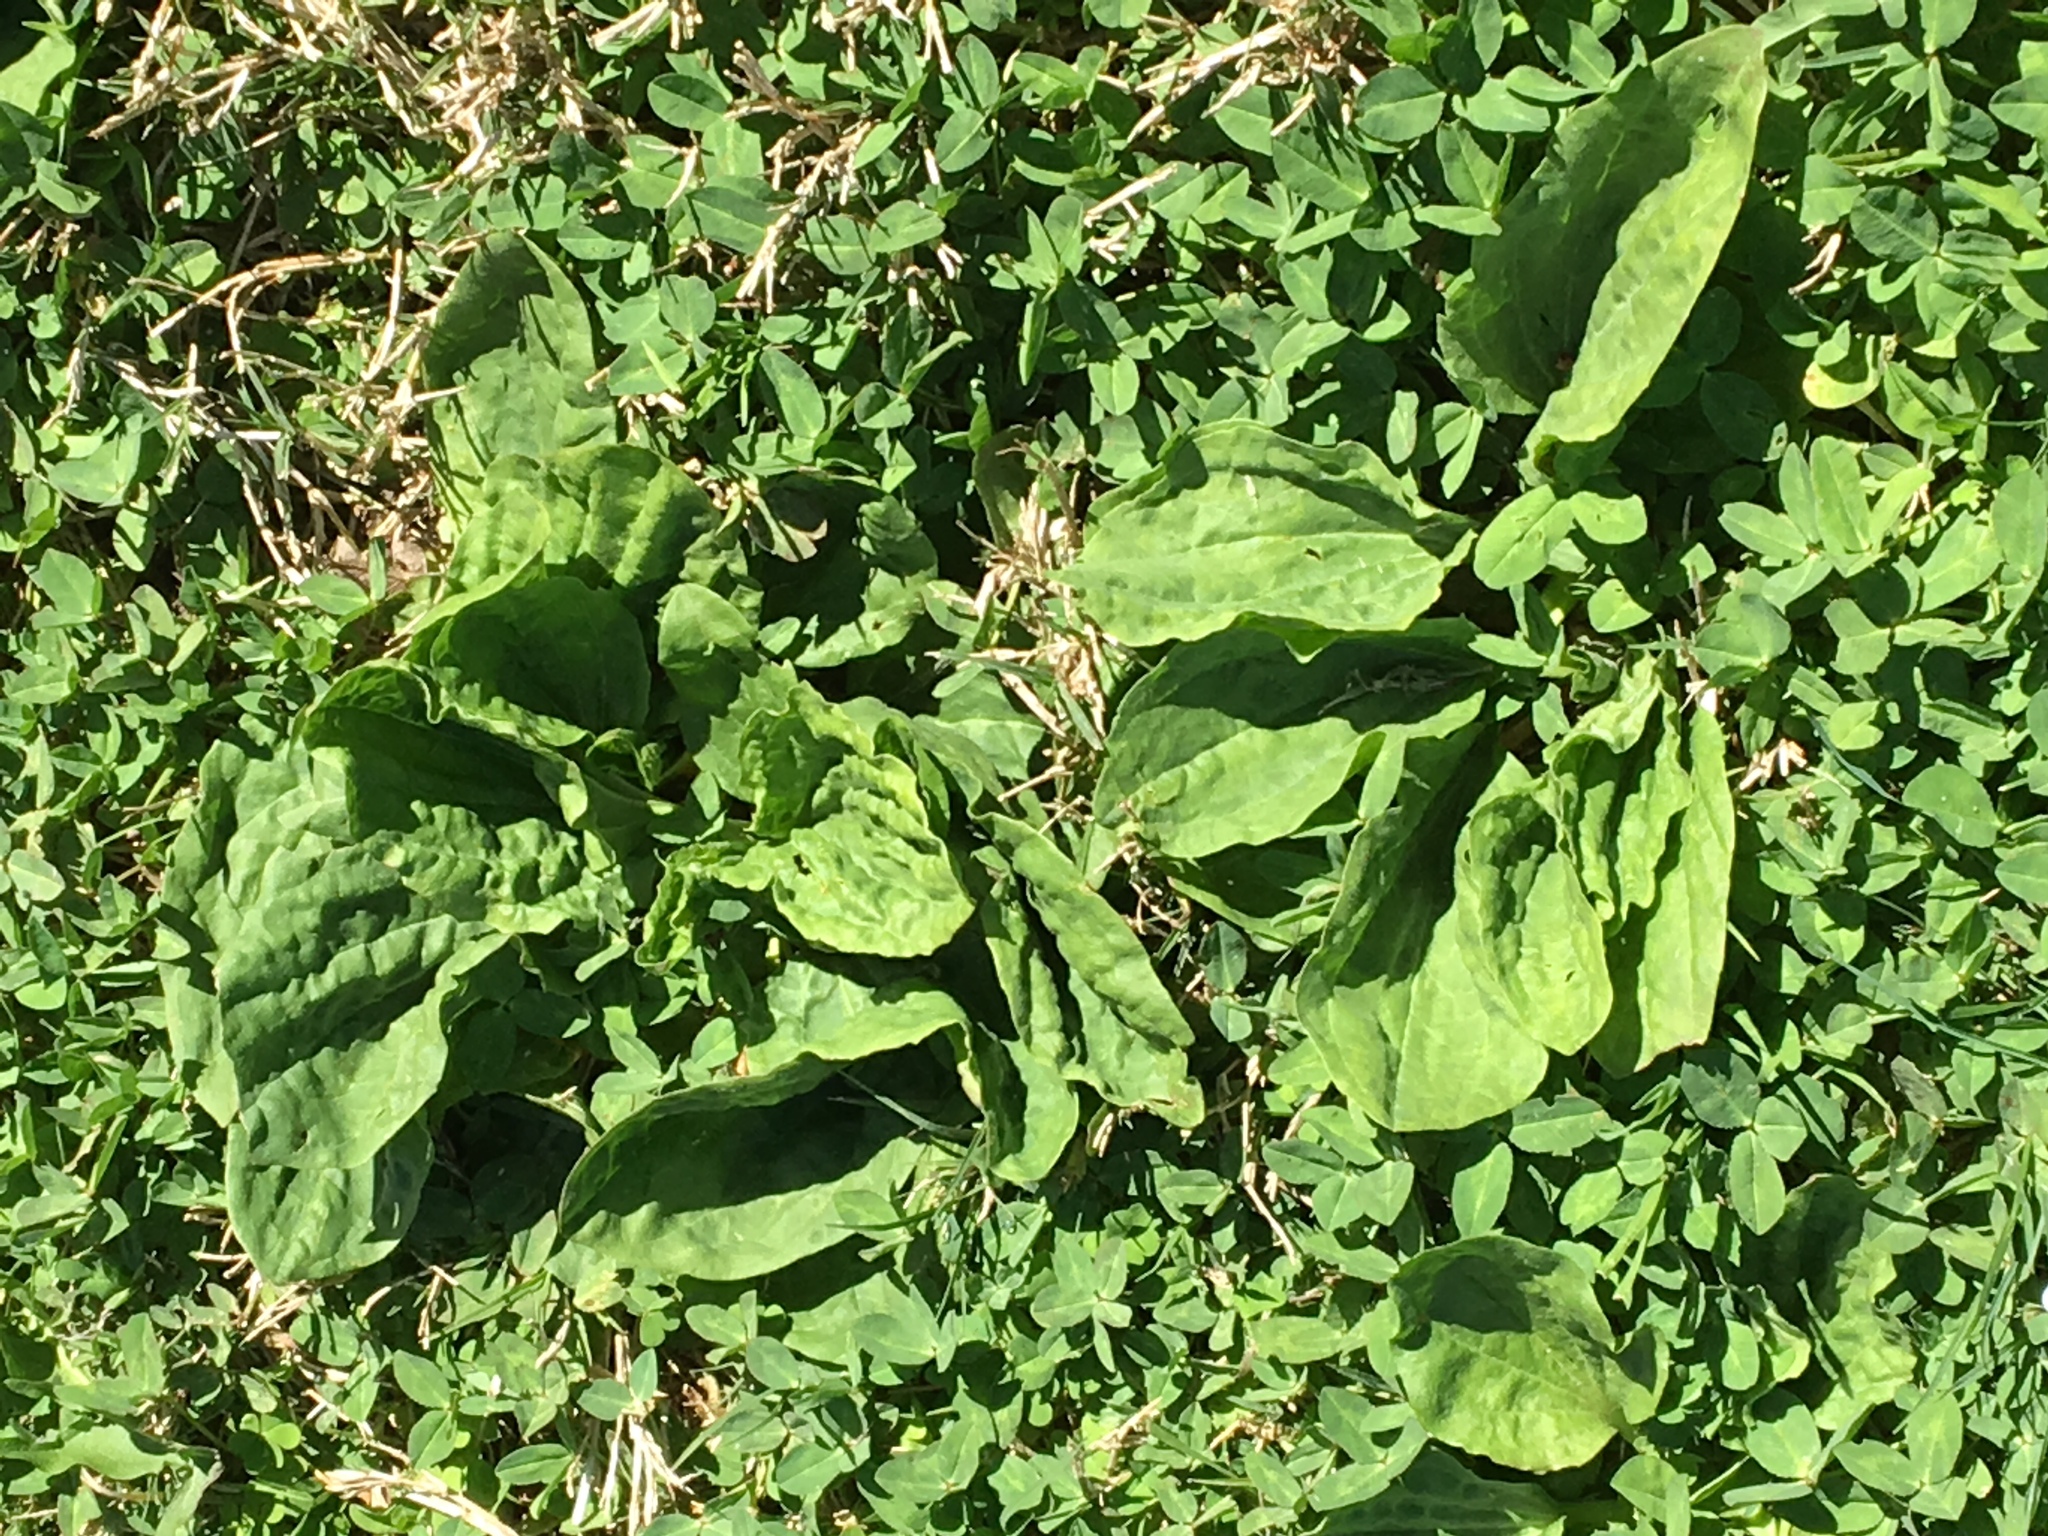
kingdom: Plantae
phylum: Tracheophyta
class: Magnoliopsida
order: Lamiales
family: Plantaginaceae
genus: Plantago
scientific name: Plantago major
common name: Common plantain
